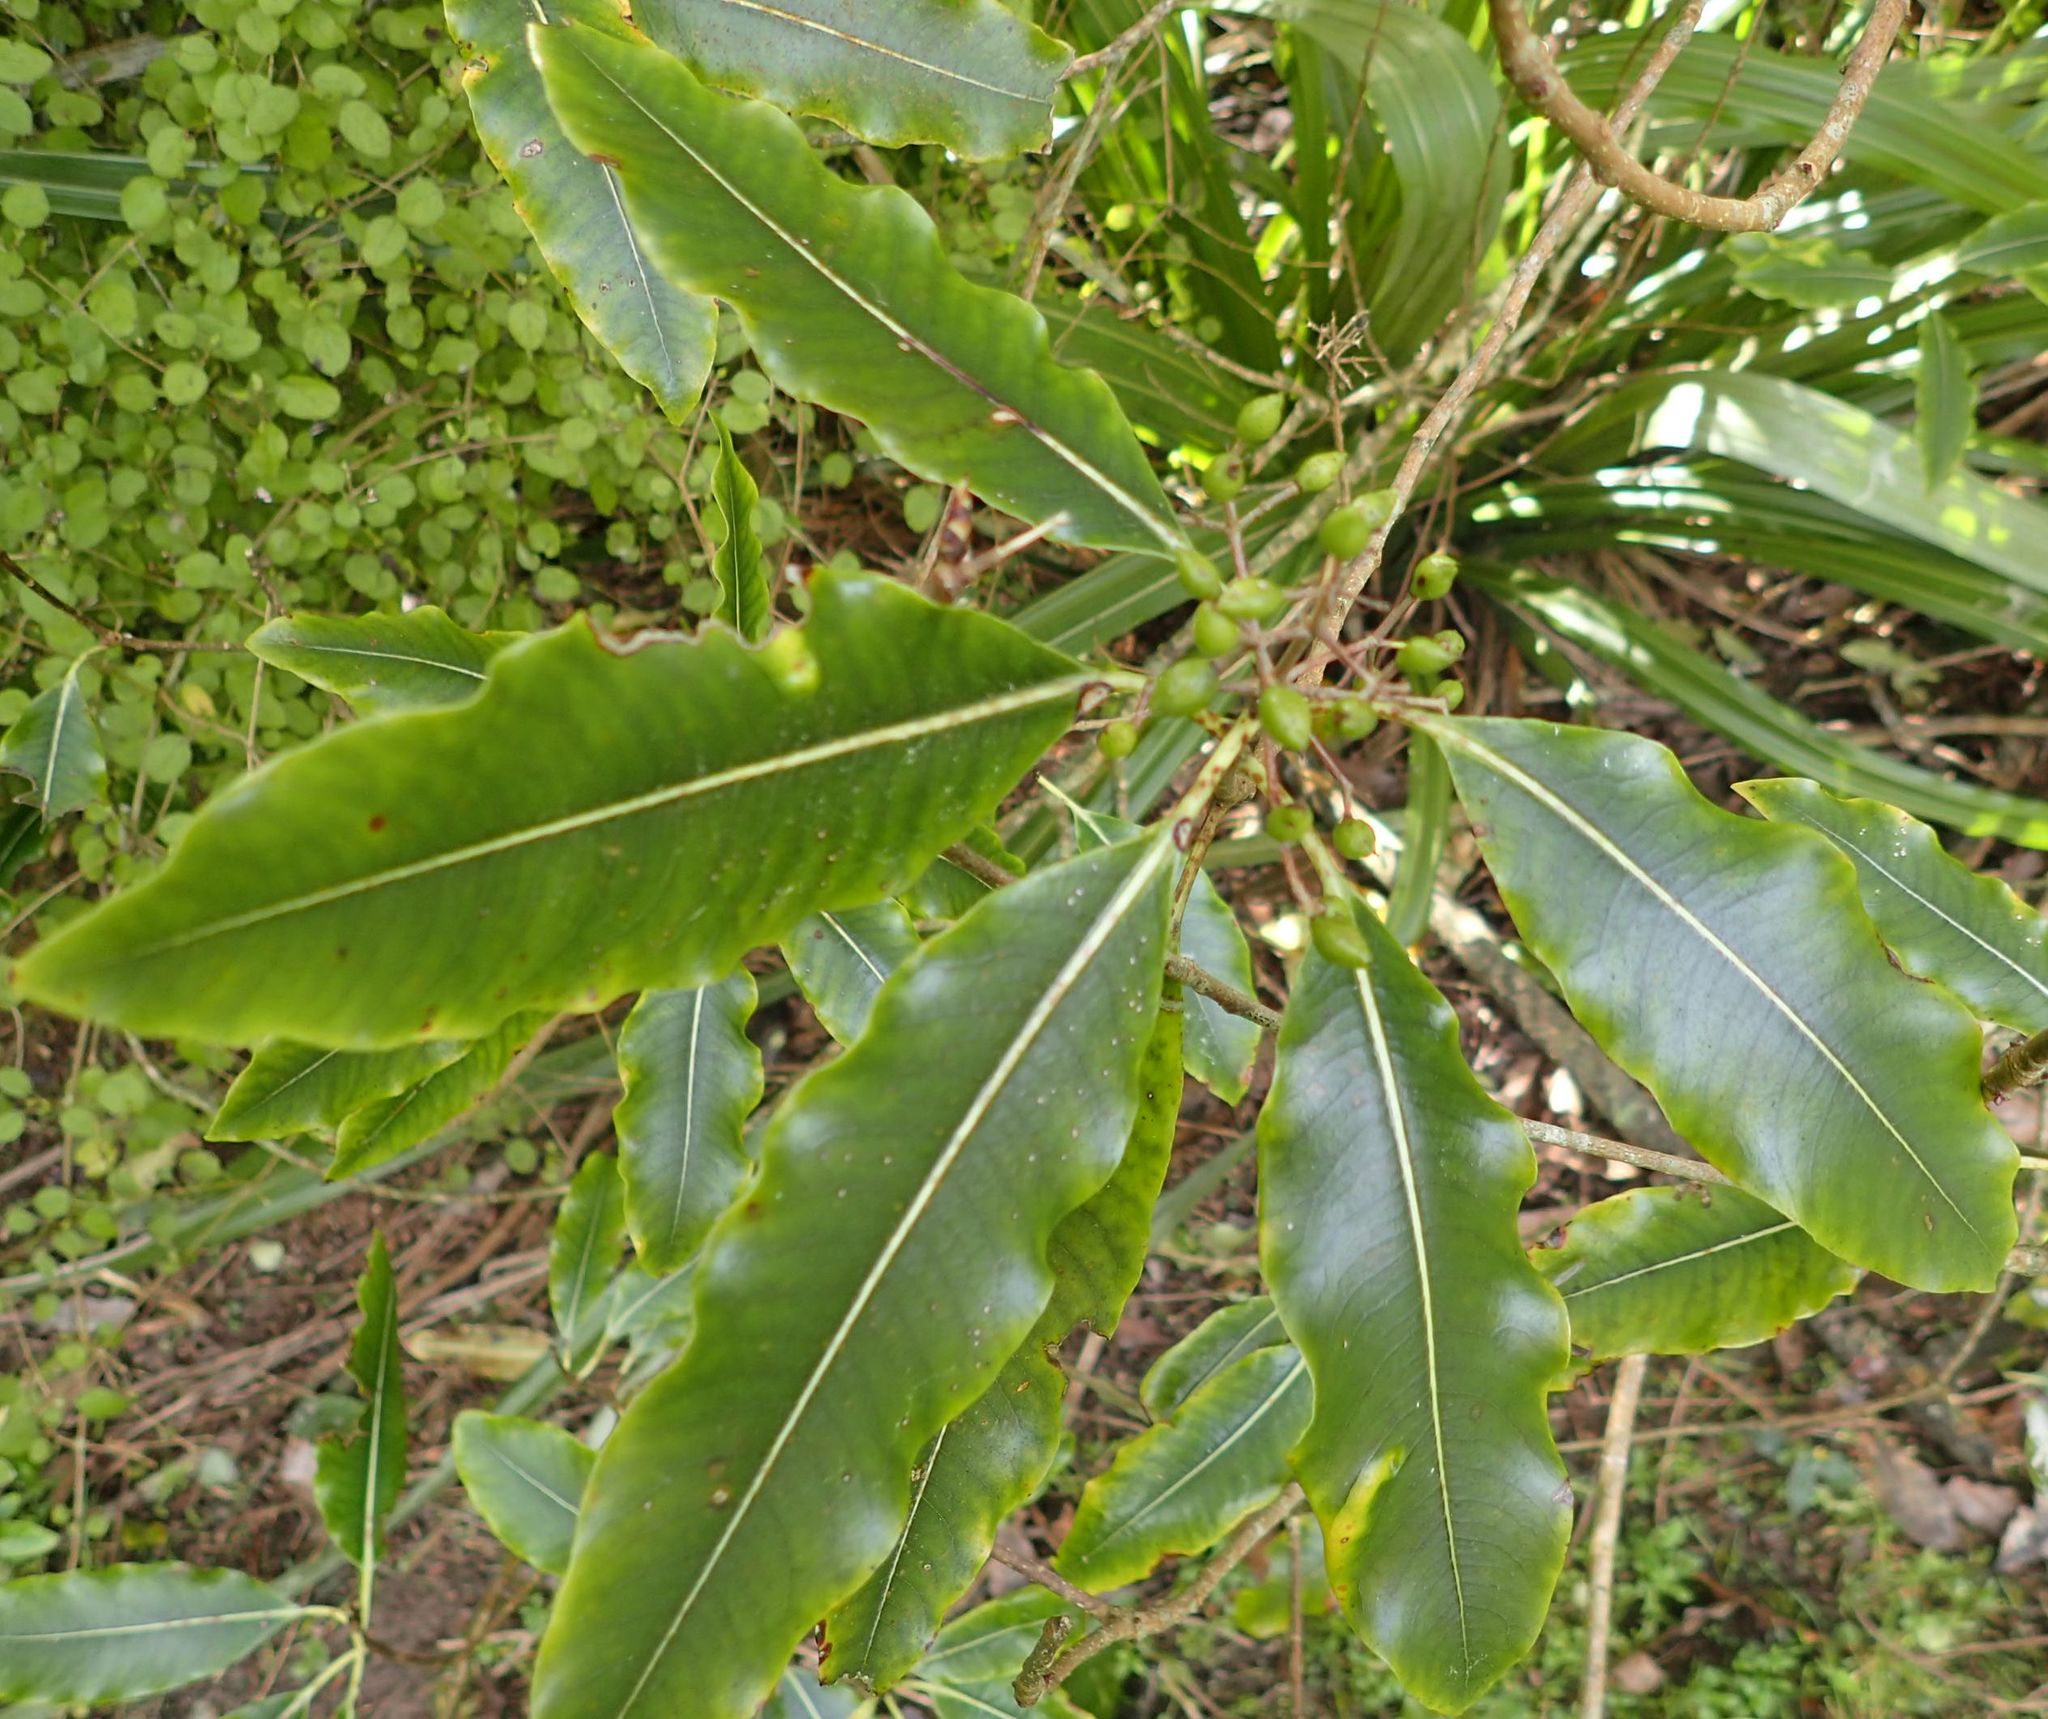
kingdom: Plantae
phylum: Tracheophyta
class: Magnoliopsida
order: Apiales
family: Pittosporaceae
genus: Pittosporum
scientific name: Pittosporum eugenioides
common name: Lemonwood
